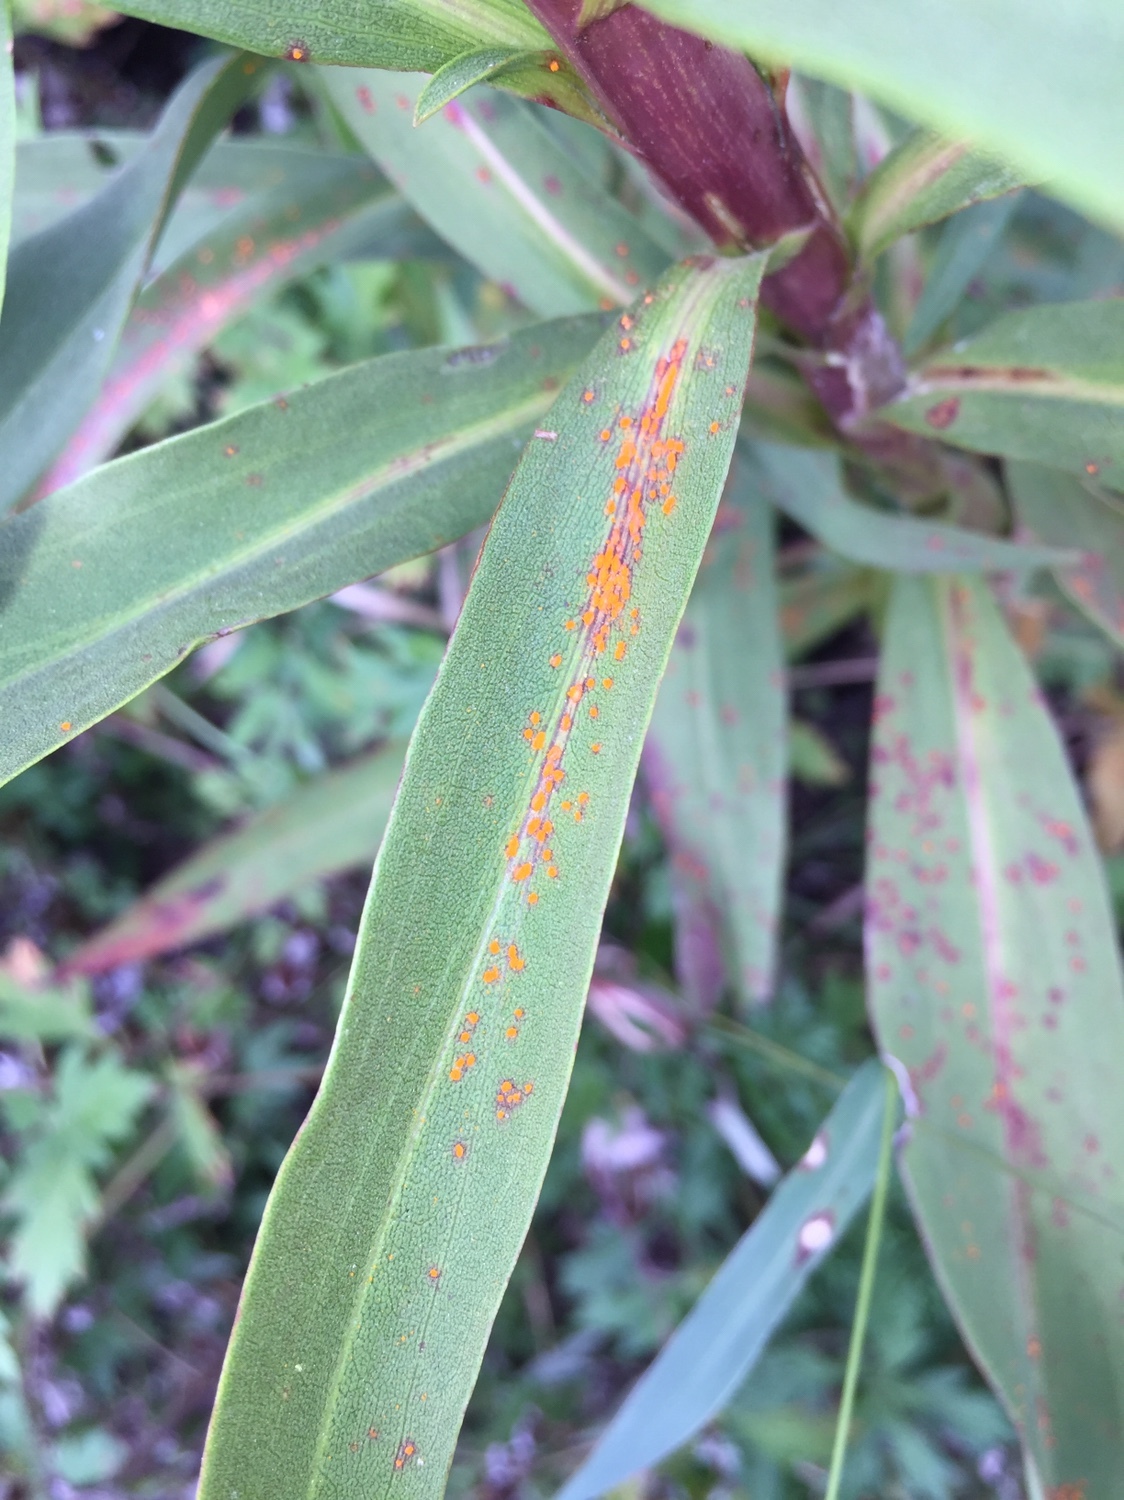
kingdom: Fungi
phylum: Basidiomycota
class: Pucciniomycetes
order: Pucciniales
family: Coleosporiaceae
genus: Coleosporium
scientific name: Coleosporium asterum
